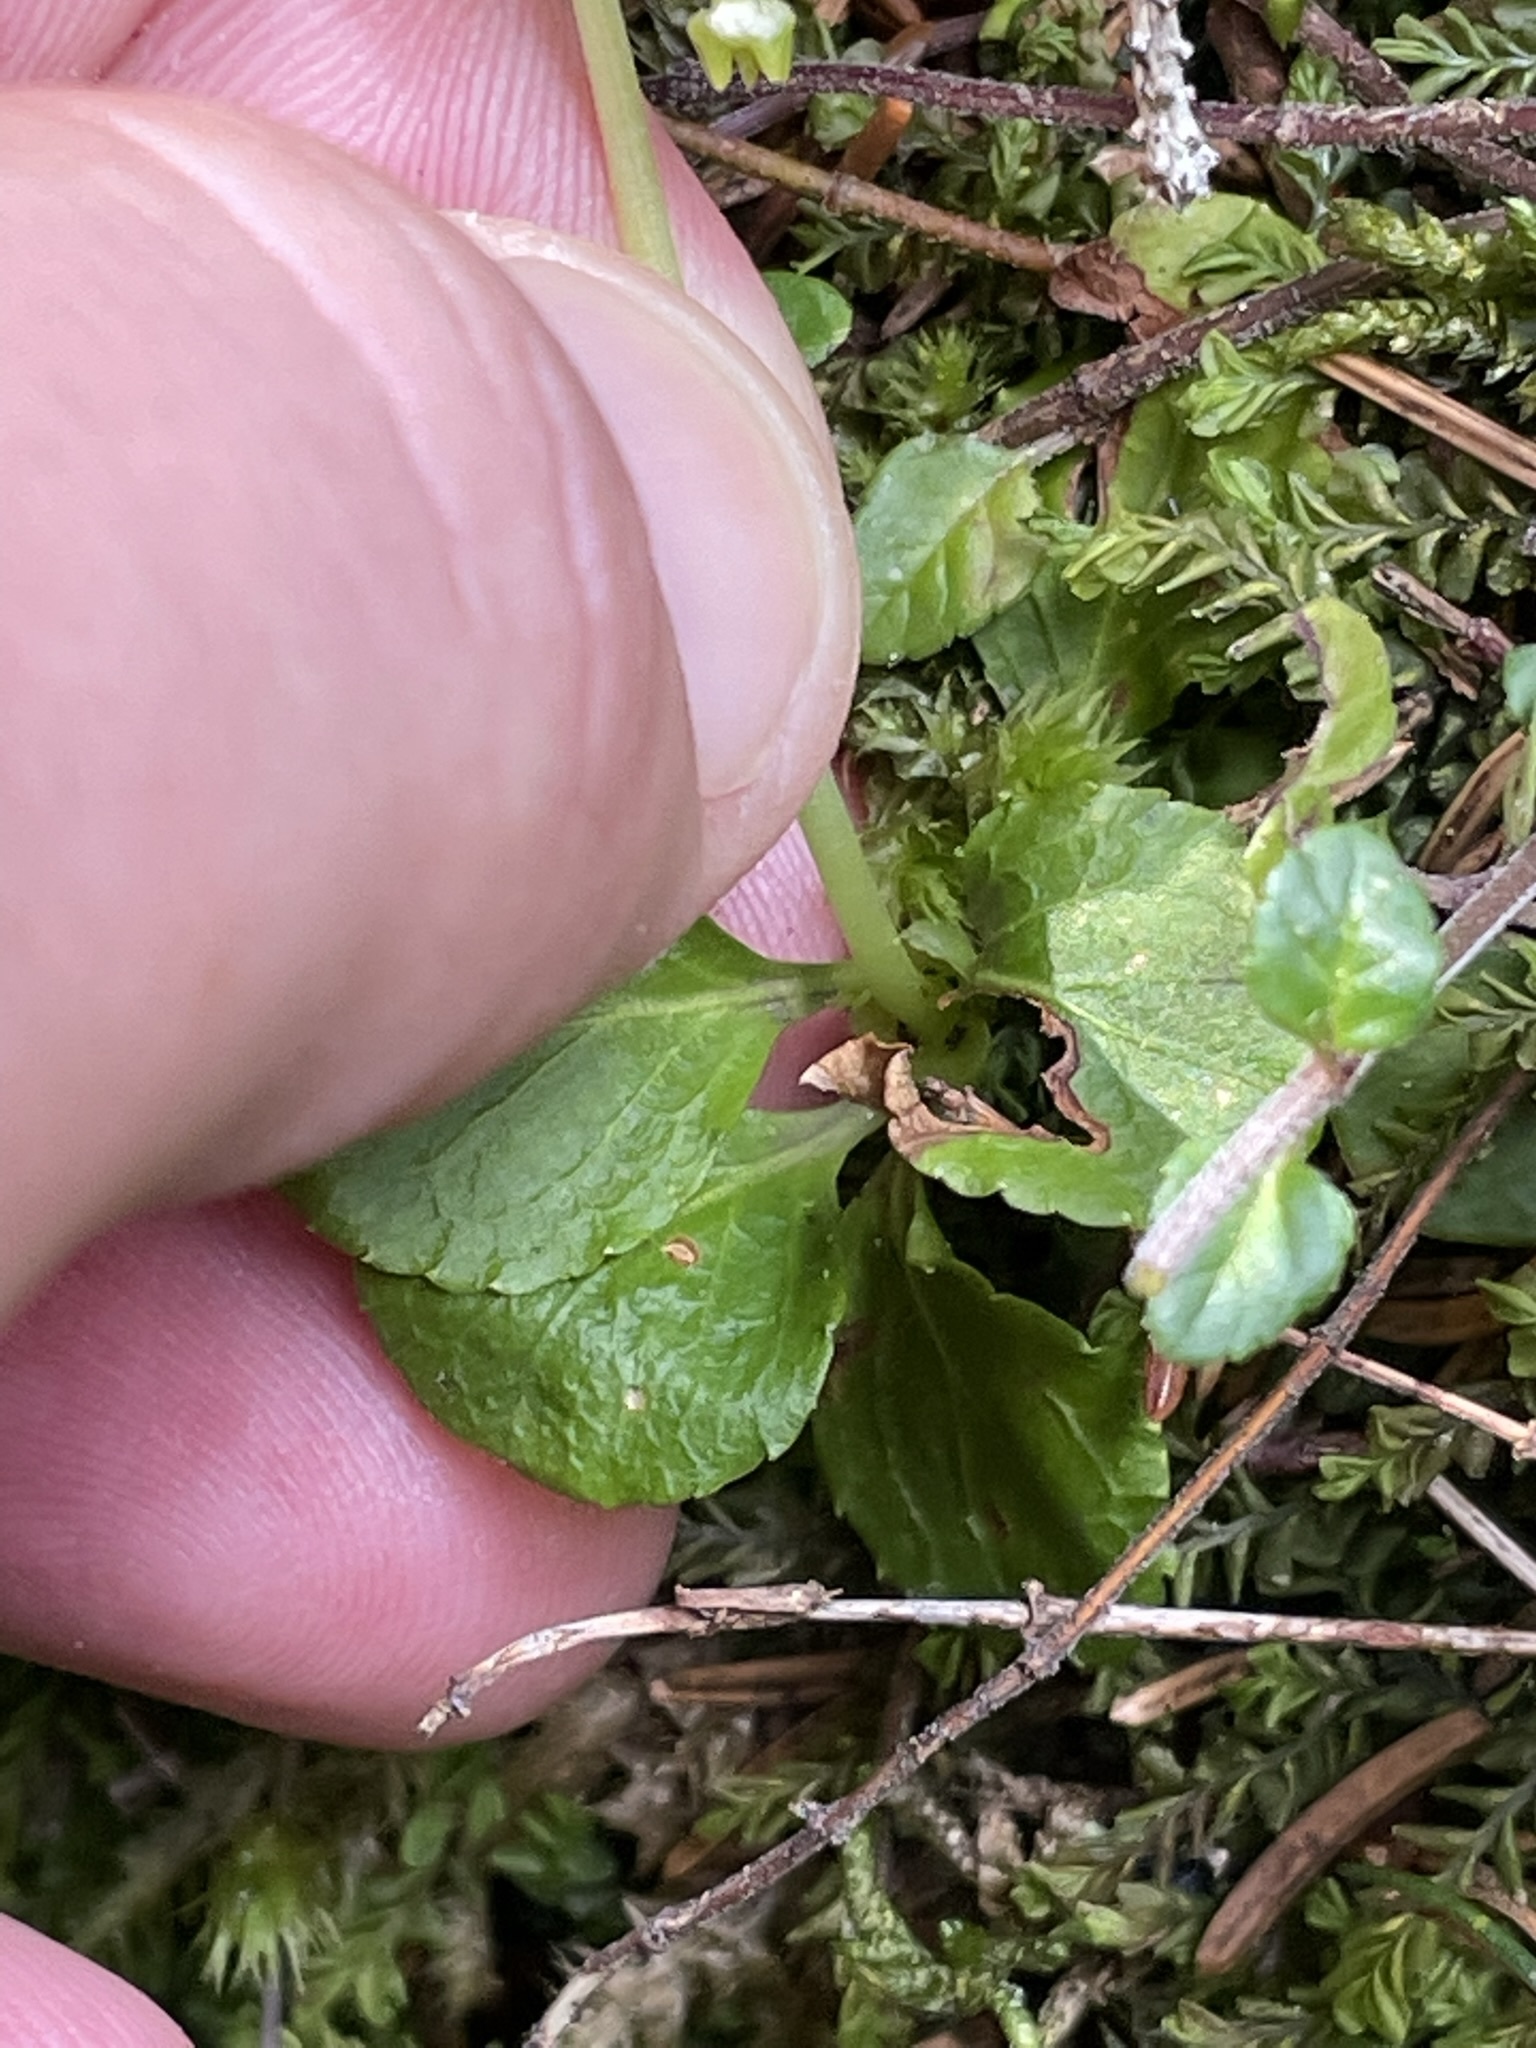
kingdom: Plantae
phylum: Tracheophyta
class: Magnoliopsida
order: Ericales
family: Ericaceae
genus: Moneses
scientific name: Moneses uniflora
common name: One-flowered wintergreen
